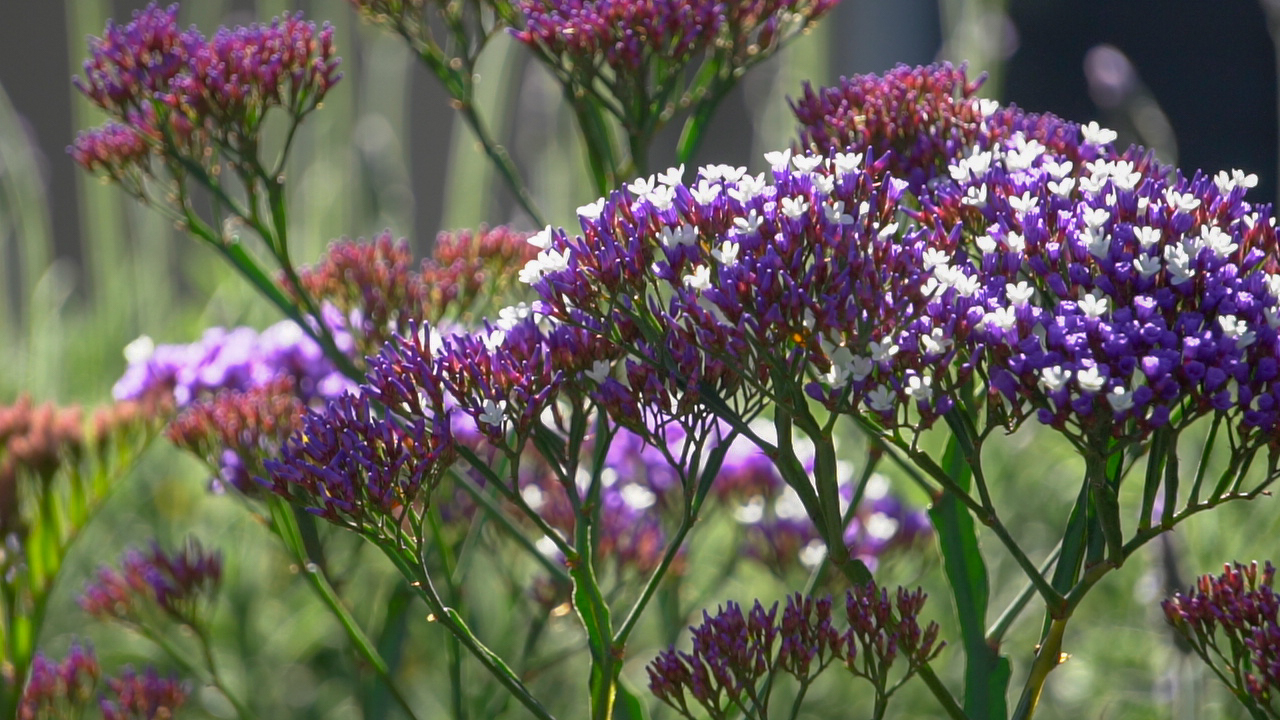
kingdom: Plantae
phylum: Tracheophyta
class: Magnoliopsida
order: Caryophyllales
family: Plumbaginaceae
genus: Limonium
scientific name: Limonium perezii
